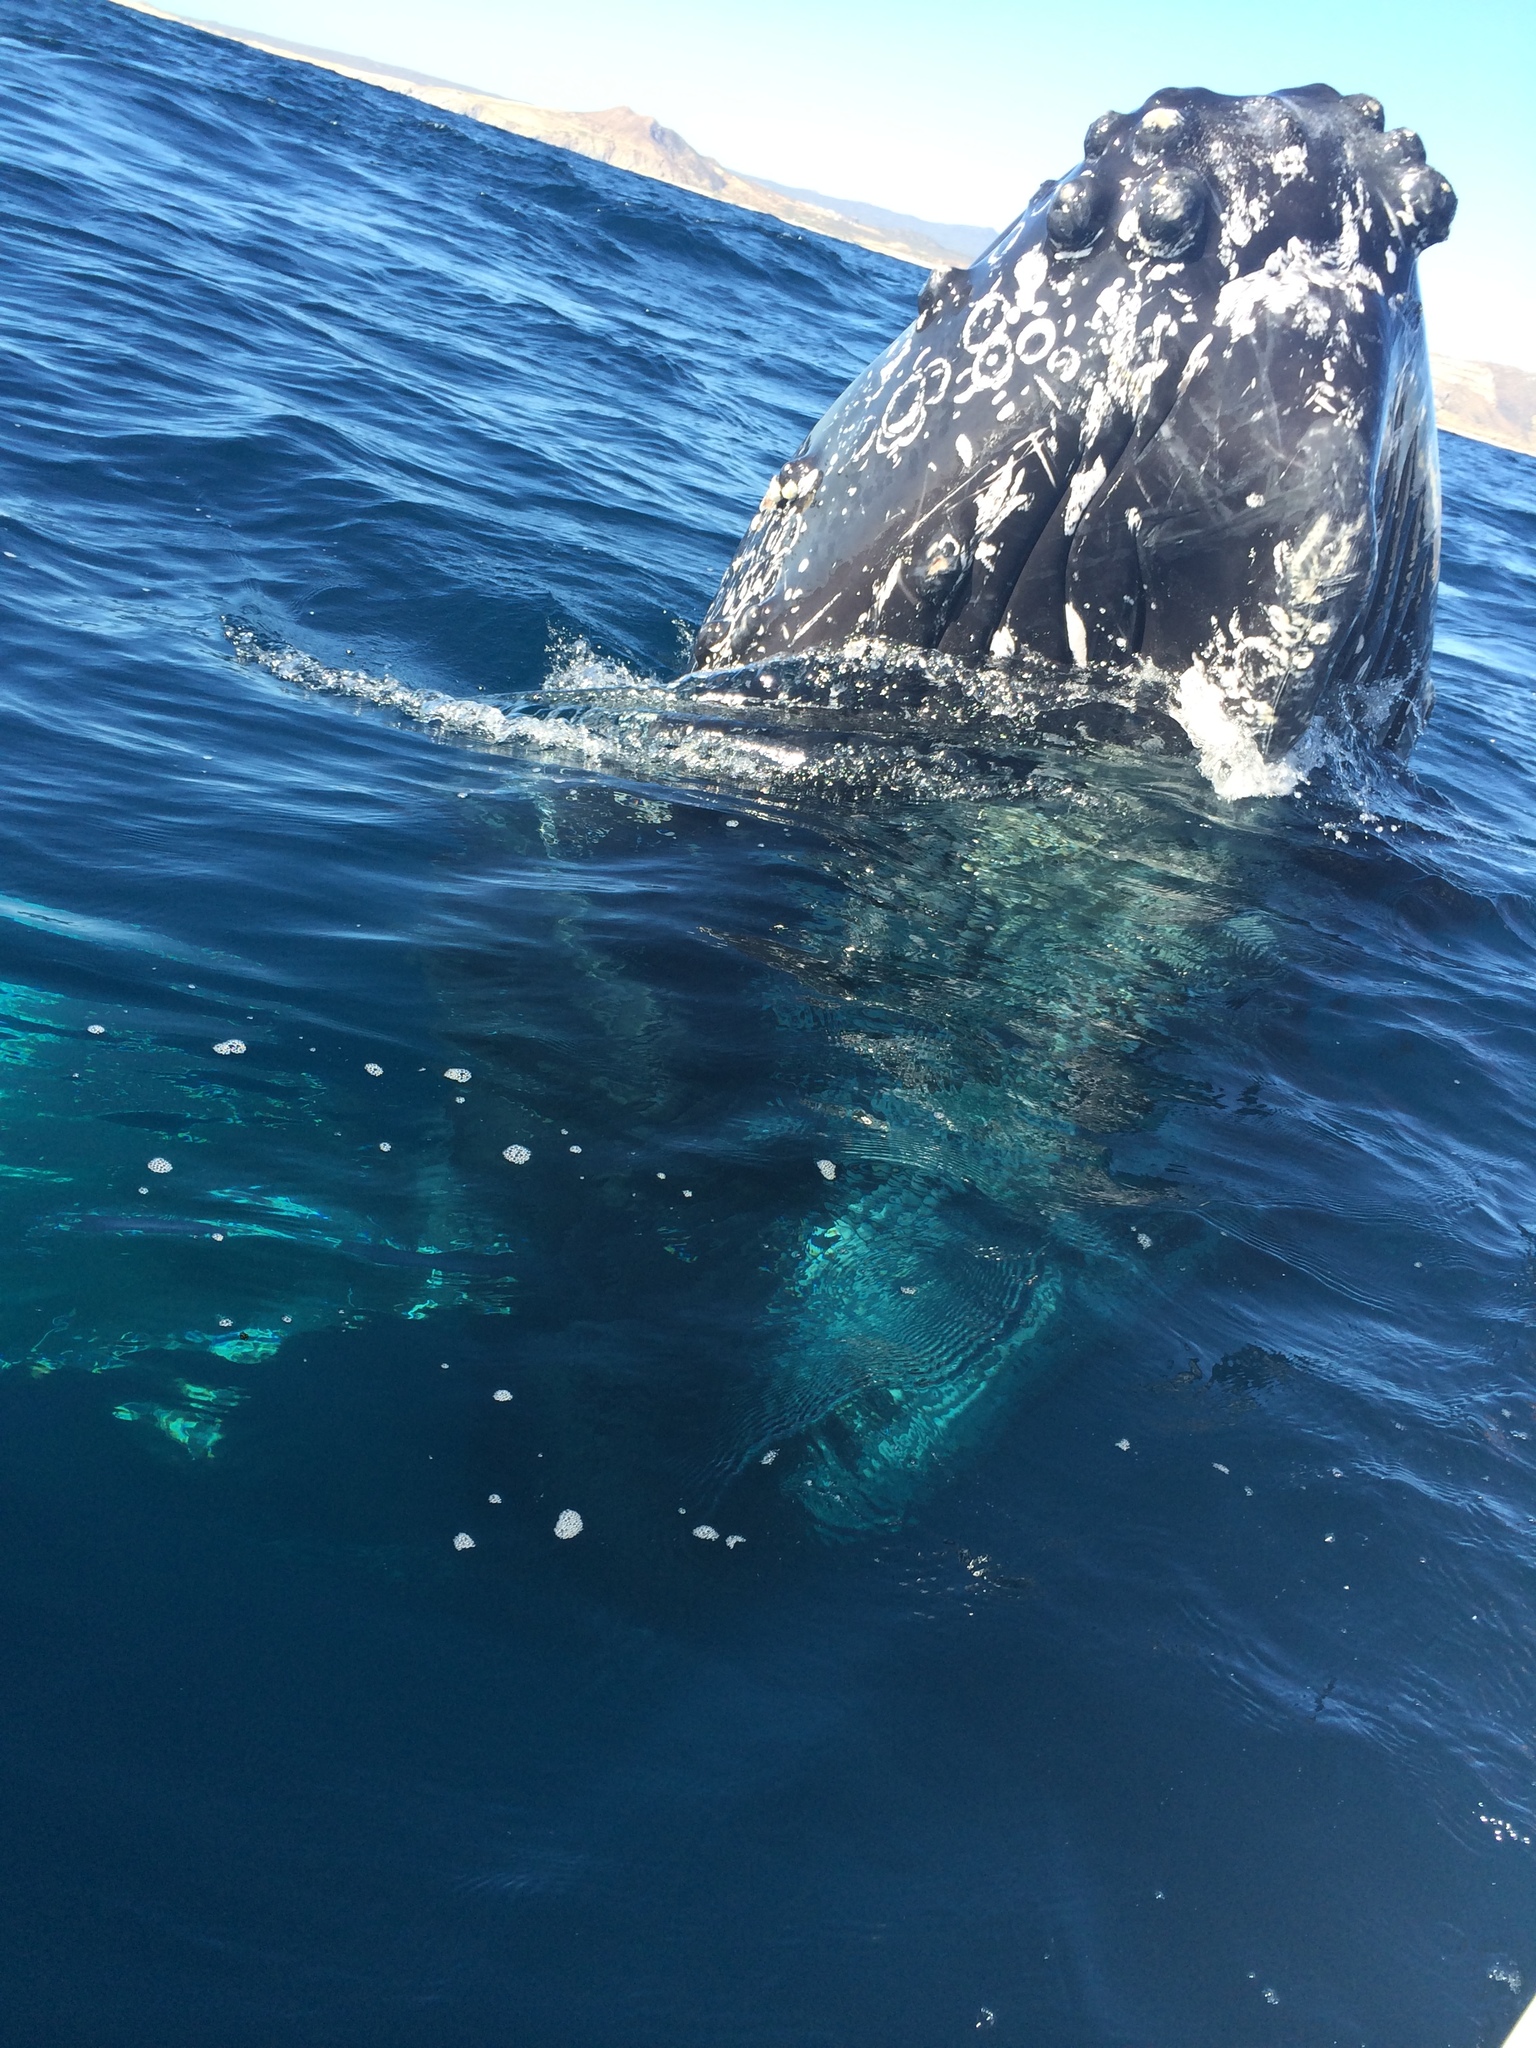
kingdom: Animalia
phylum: Chordata
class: Mammalia
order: Cetacea
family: Balaenopteridae
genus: Megaptera
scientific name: Megaptera novaeangliae
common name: Humpback whale
